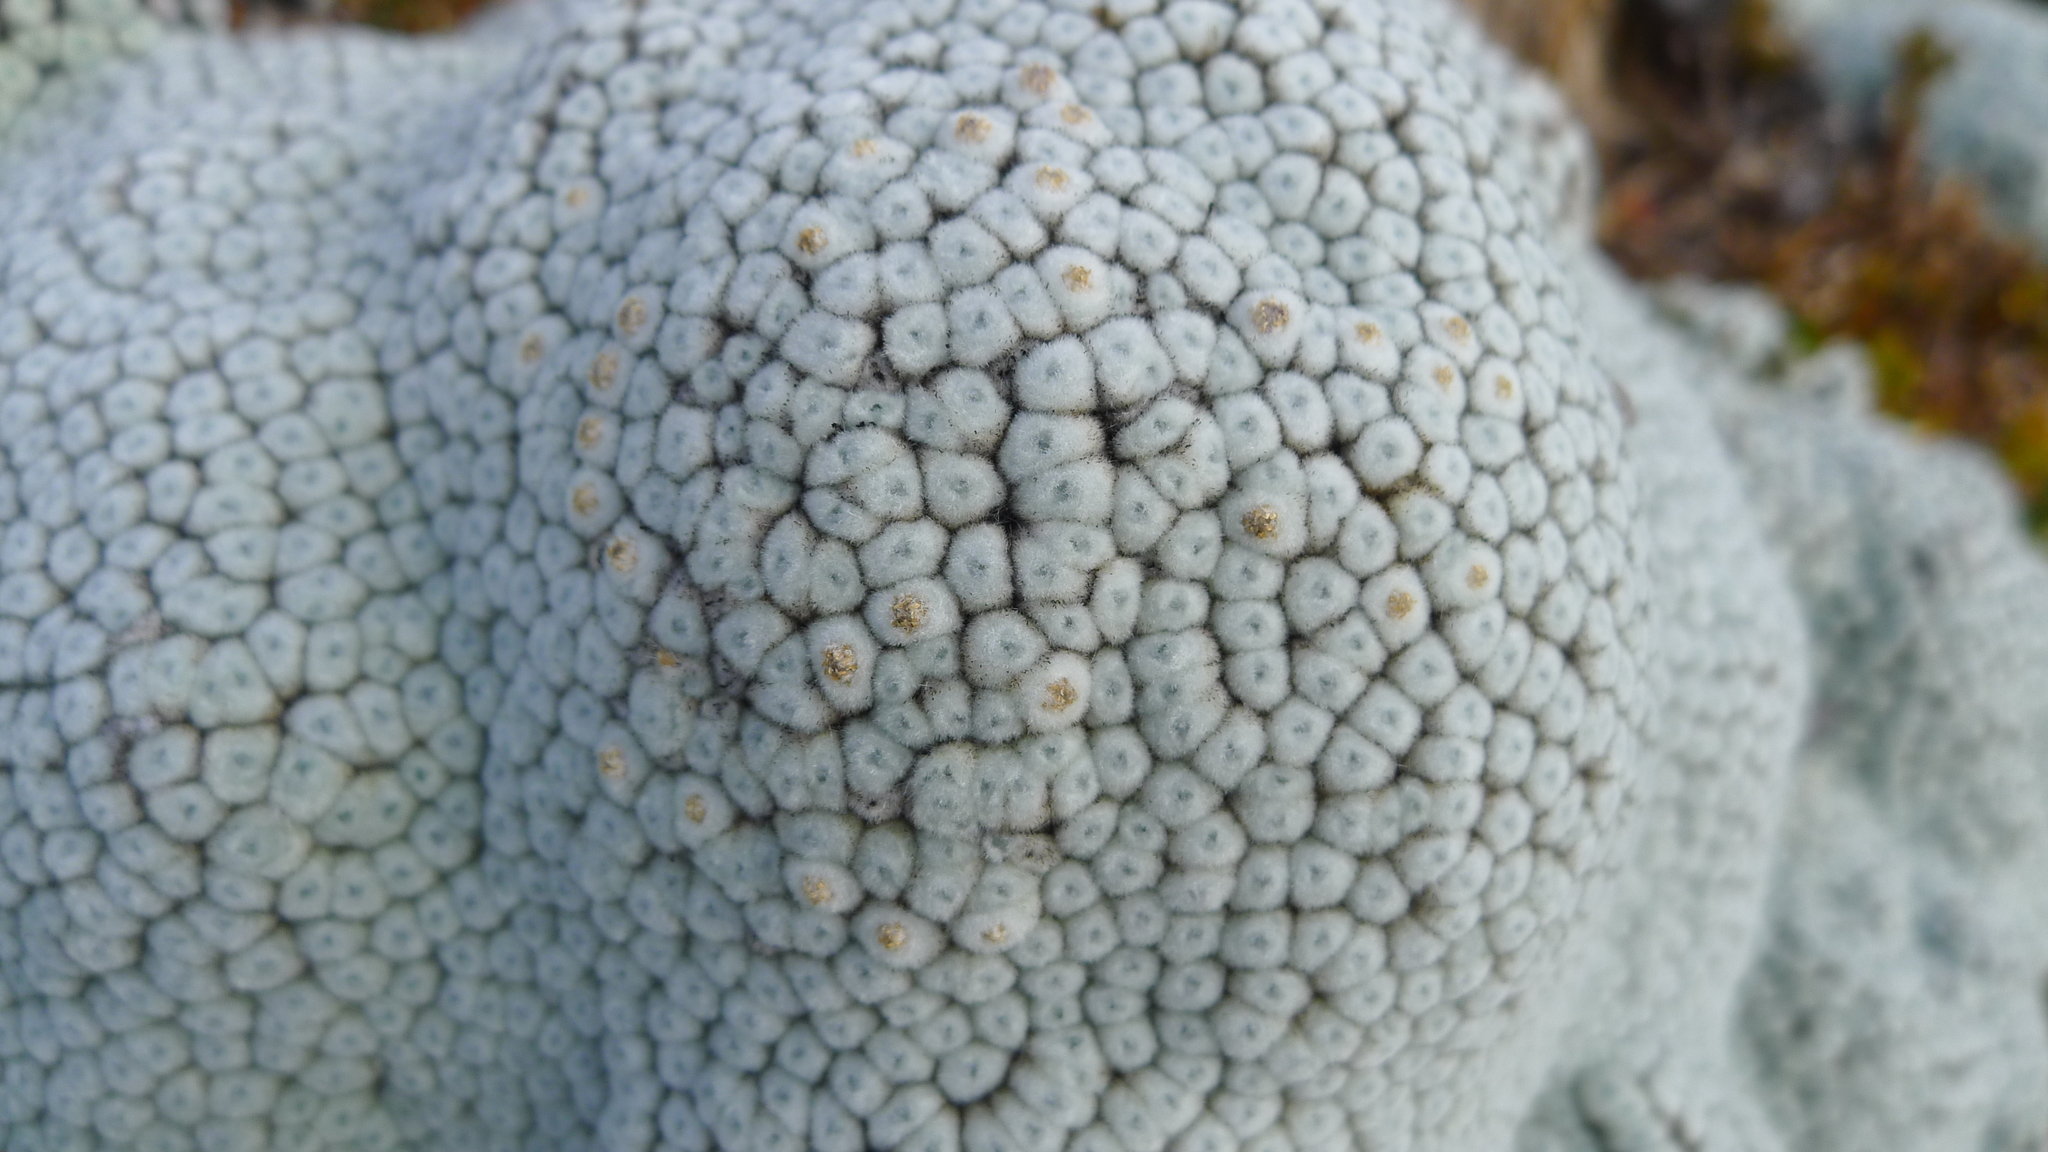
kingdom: Plantae
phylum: Tracheophyta
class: Magnoliopsida
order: Asterales
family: Asteraceae
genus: Raoulia
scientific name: Raoulia eximia
